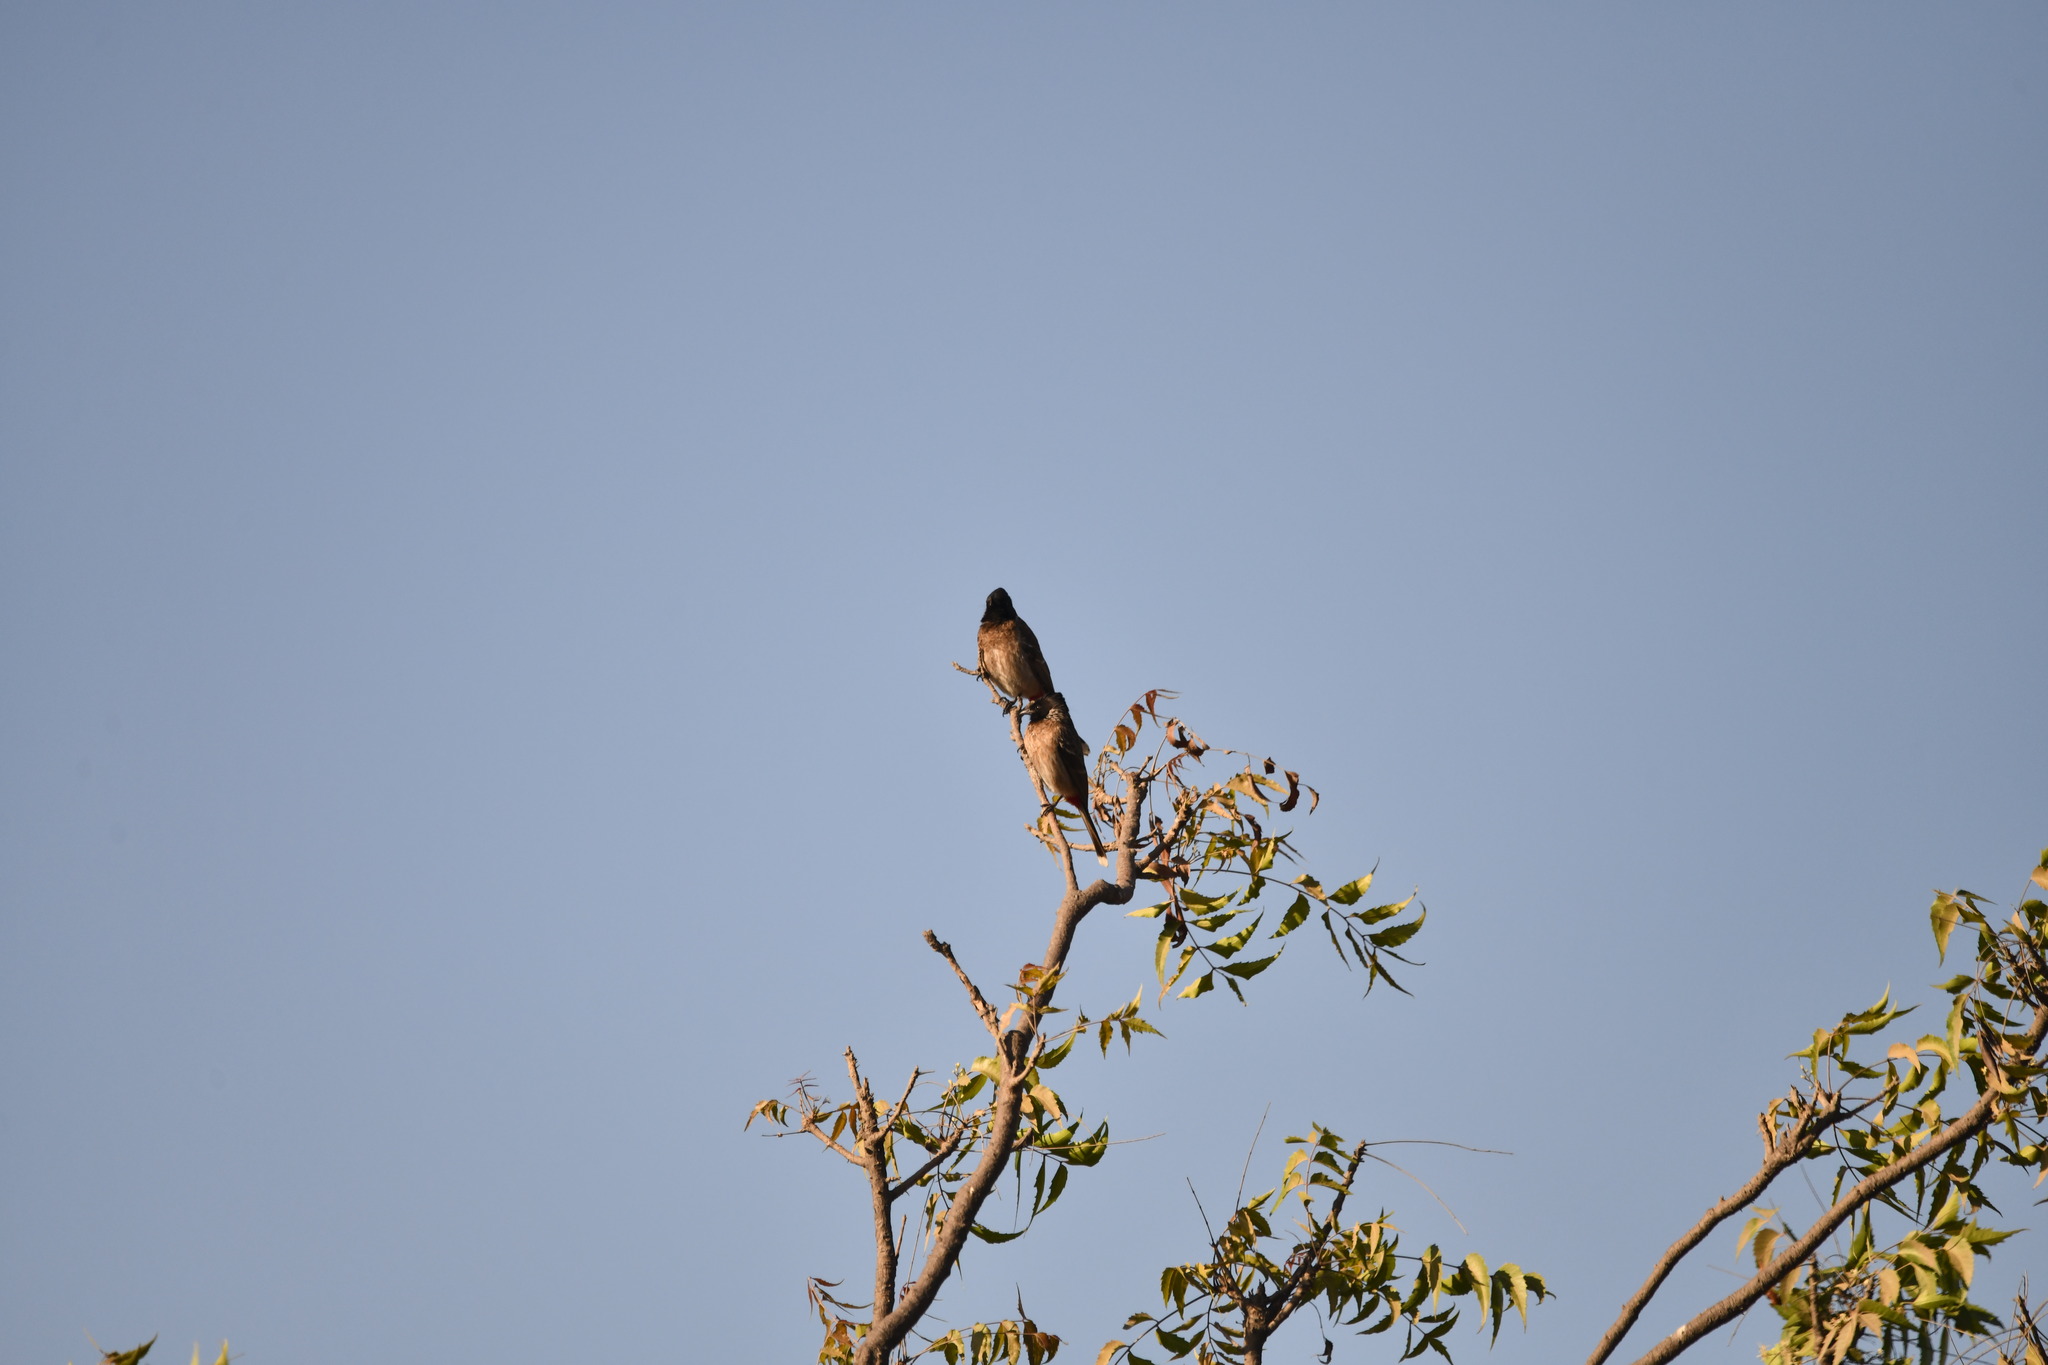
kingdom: Animalia
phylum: Chordata
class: Aves
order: Passeriformes
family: Pycnonotidae
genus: Pycnonotus
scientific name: Pycnonotus cafer
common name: Red-vented bulbul
